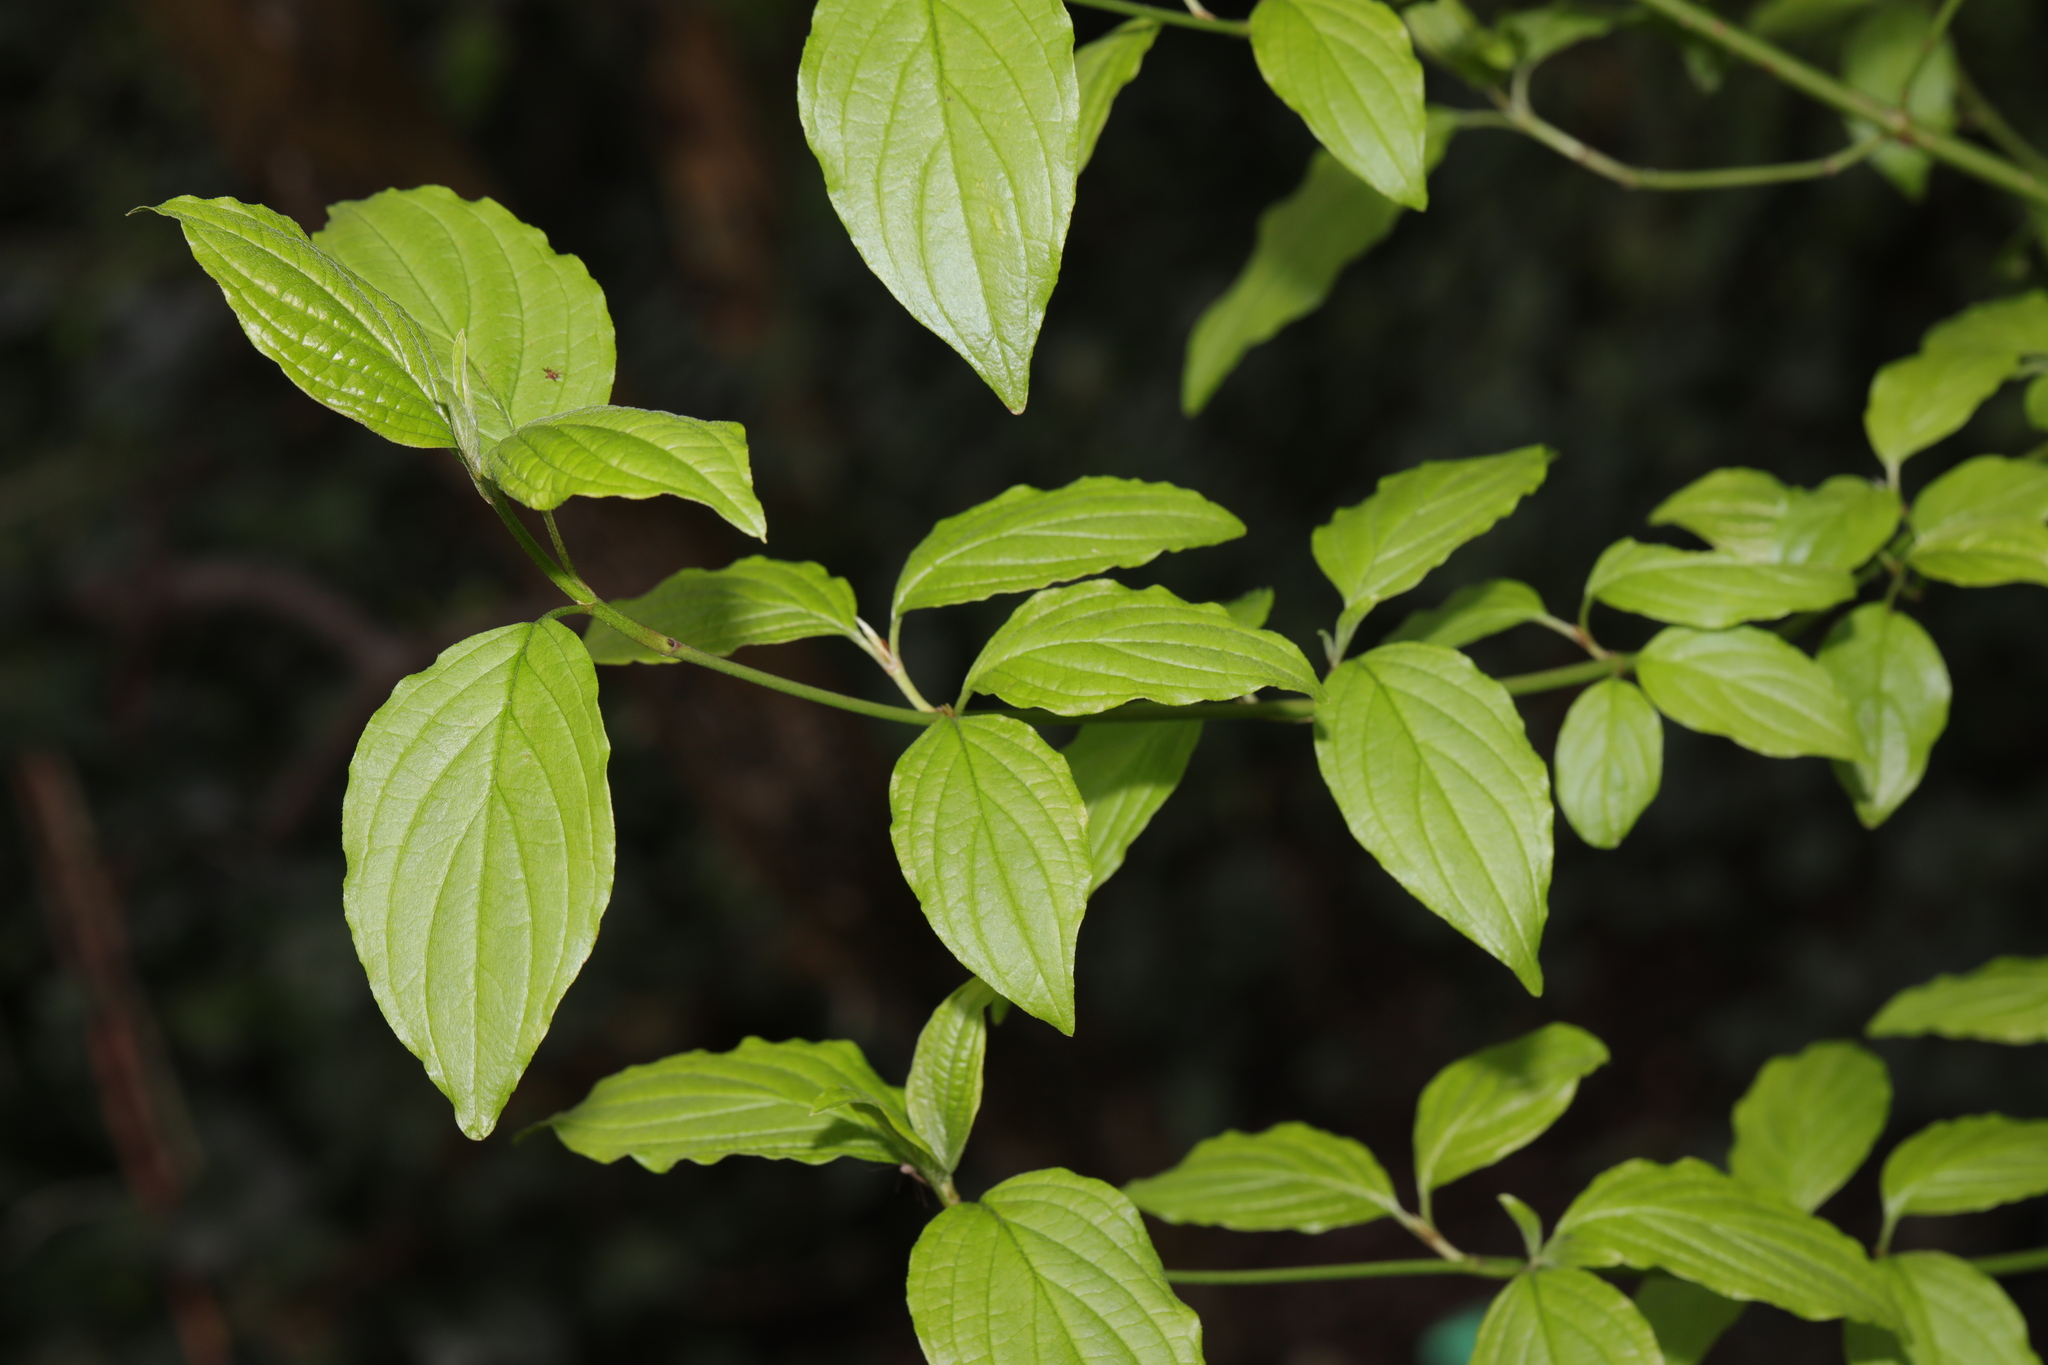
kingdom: Plantae
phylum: Tracheophyta
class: Magnoliopsida
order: Cornales
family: Cornaceae
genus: Cornus
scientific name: Cornus sanguinea
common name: Dogwood
